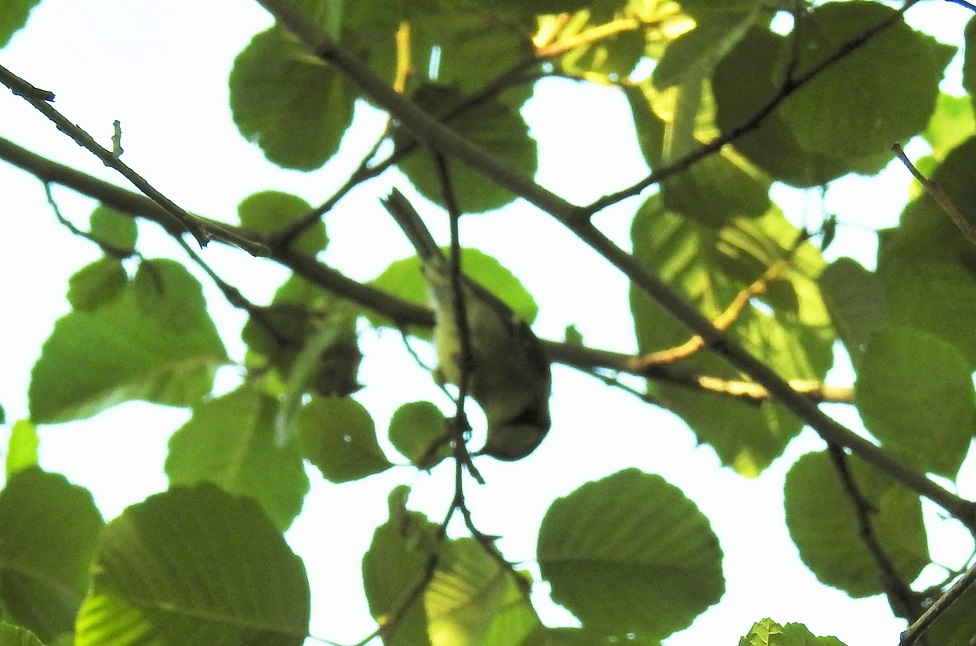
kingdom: Animalia
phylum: Chordata
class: Aves
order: Passeriformes
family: Paridae
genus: Parus
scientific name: Parus major
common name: Great tit
